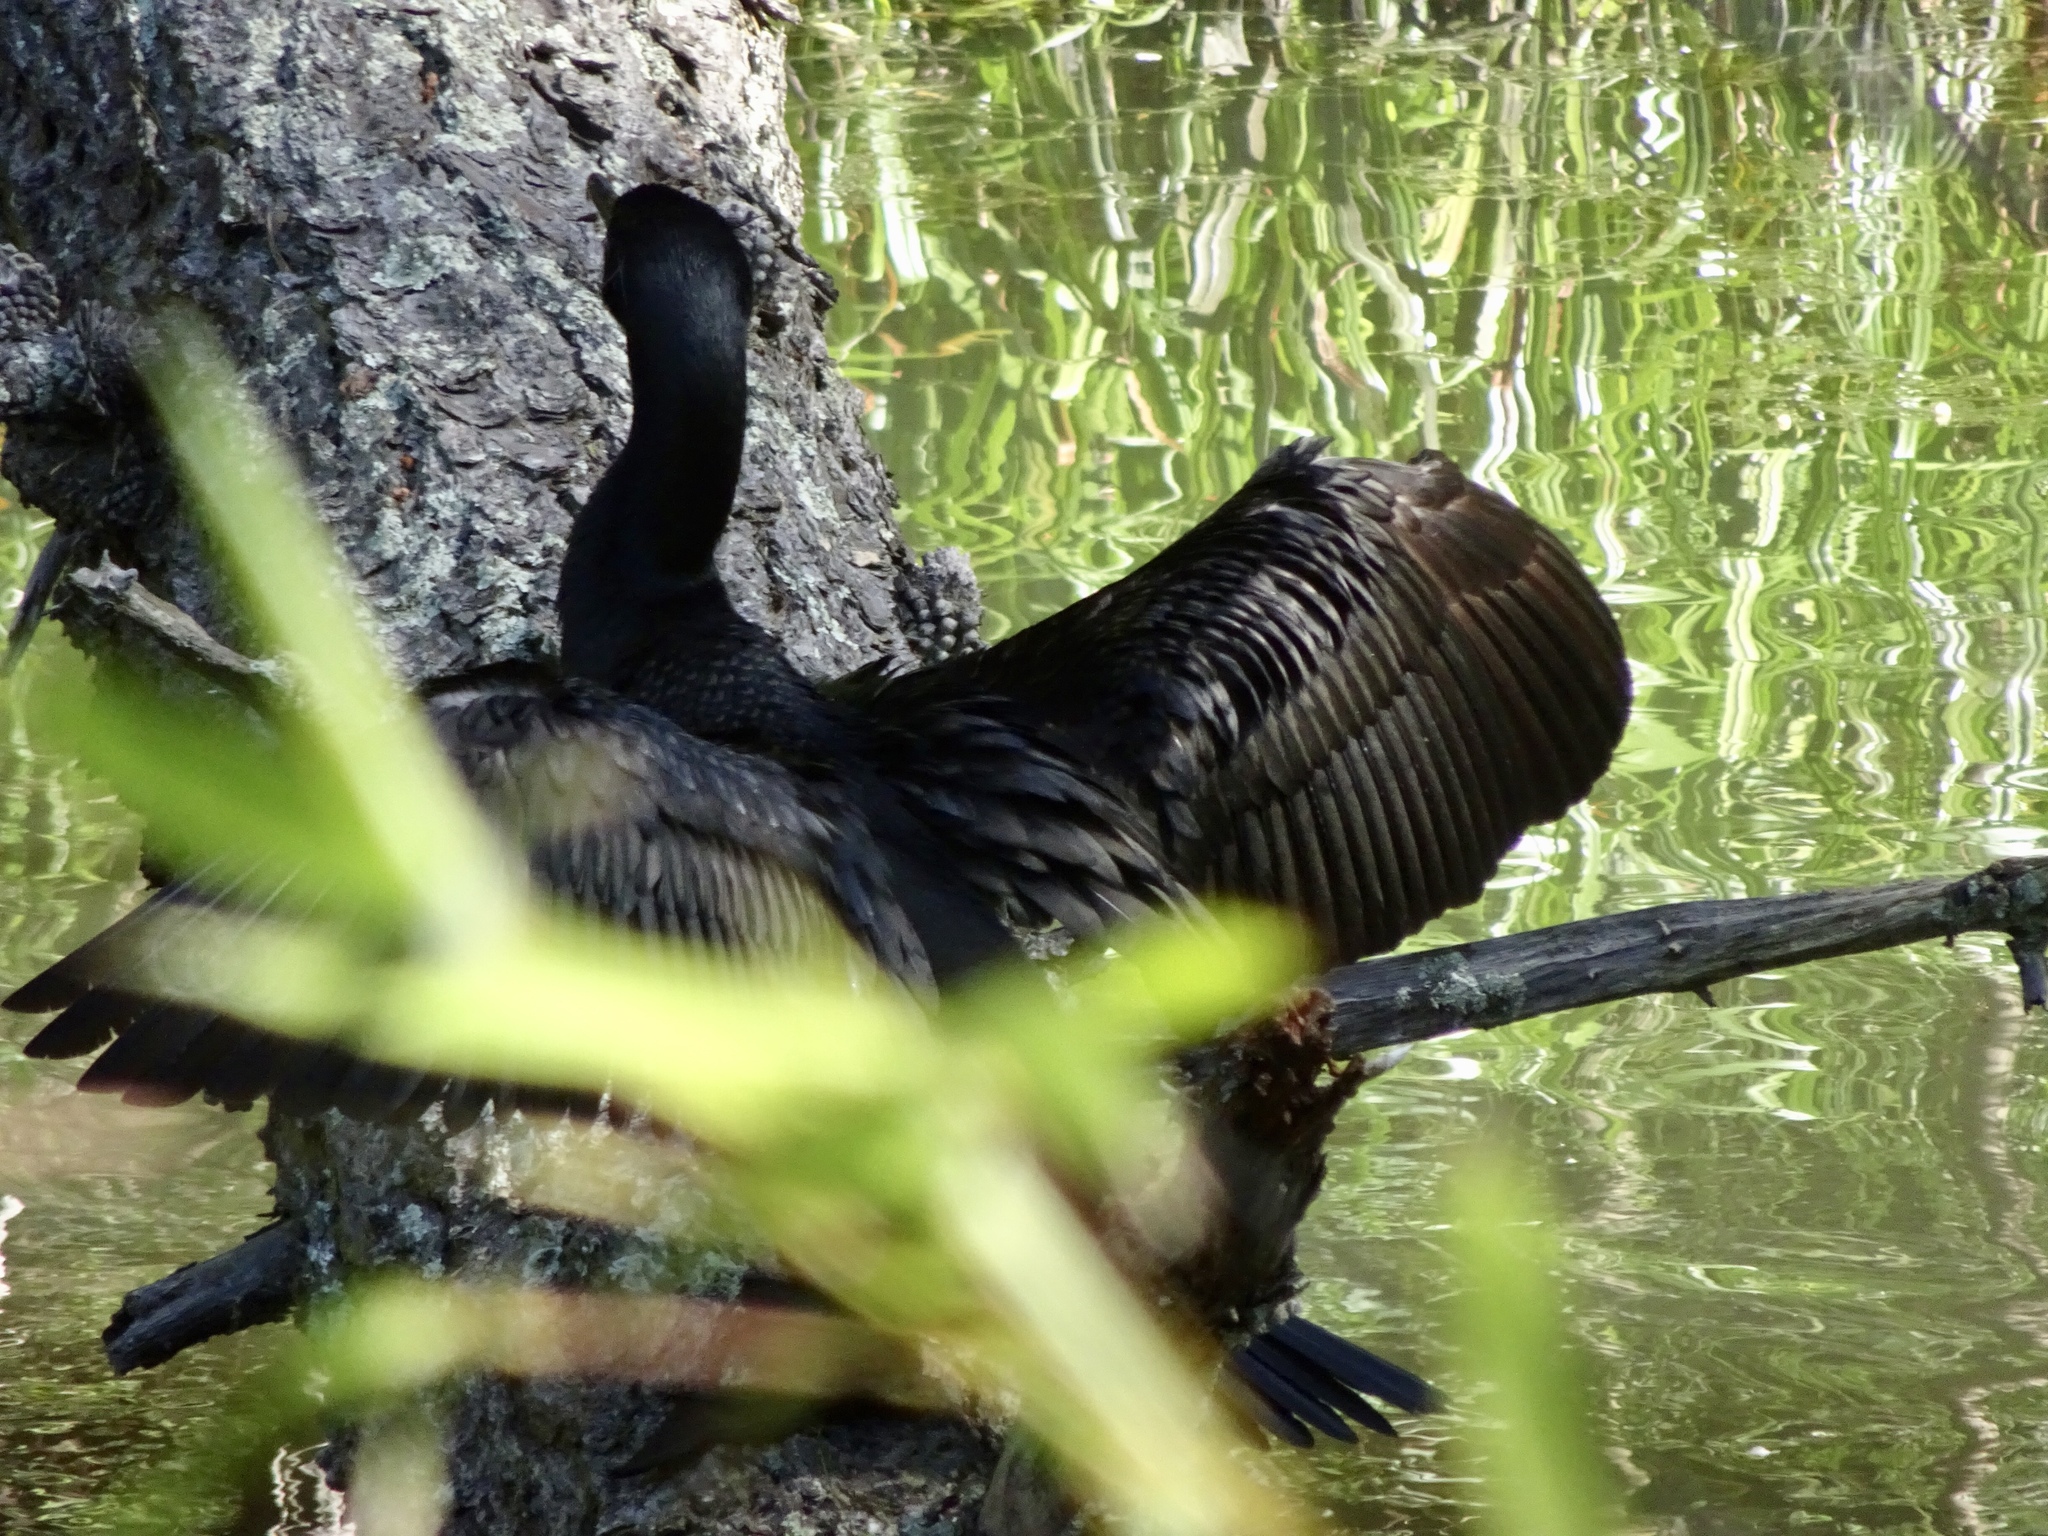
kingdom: Animalia
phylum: Chordata
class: Aves
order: Suliformes
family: Phalacrocoracidae
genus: Phalacrocorax
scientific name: Phalacrocorax auritus
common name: Double-crested cormorant
